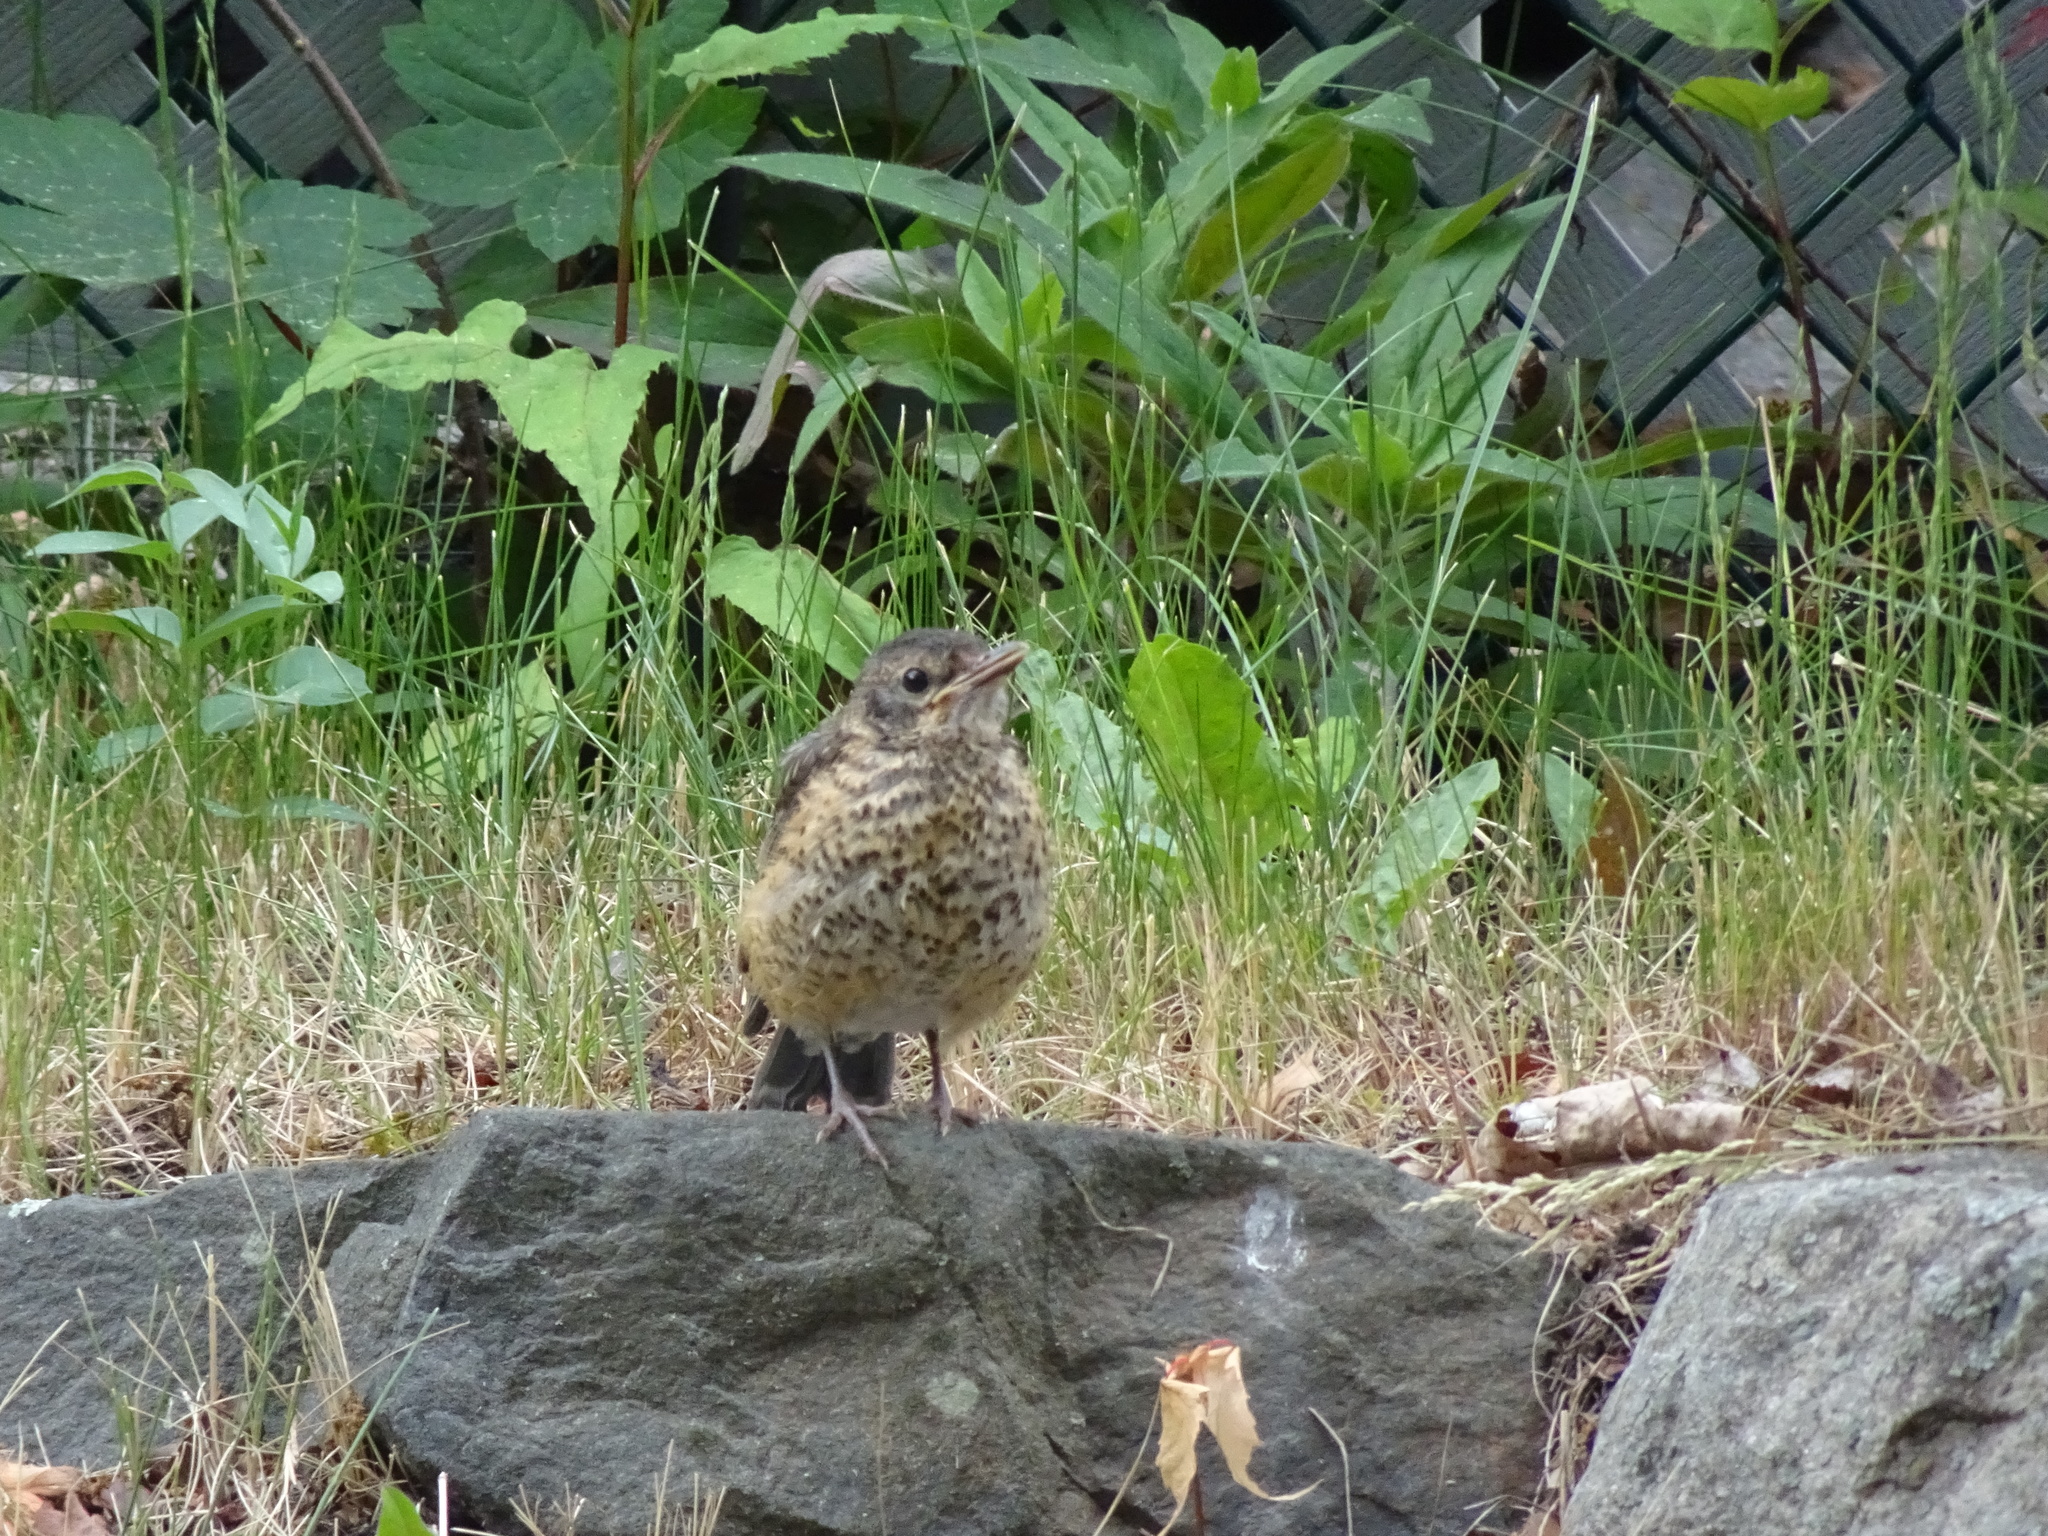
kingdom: Animalia
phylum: Chordata
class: Aves
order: Passeriformes
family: Turdidae
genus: Turdus
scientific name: Turdus migratorius
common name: American robin
